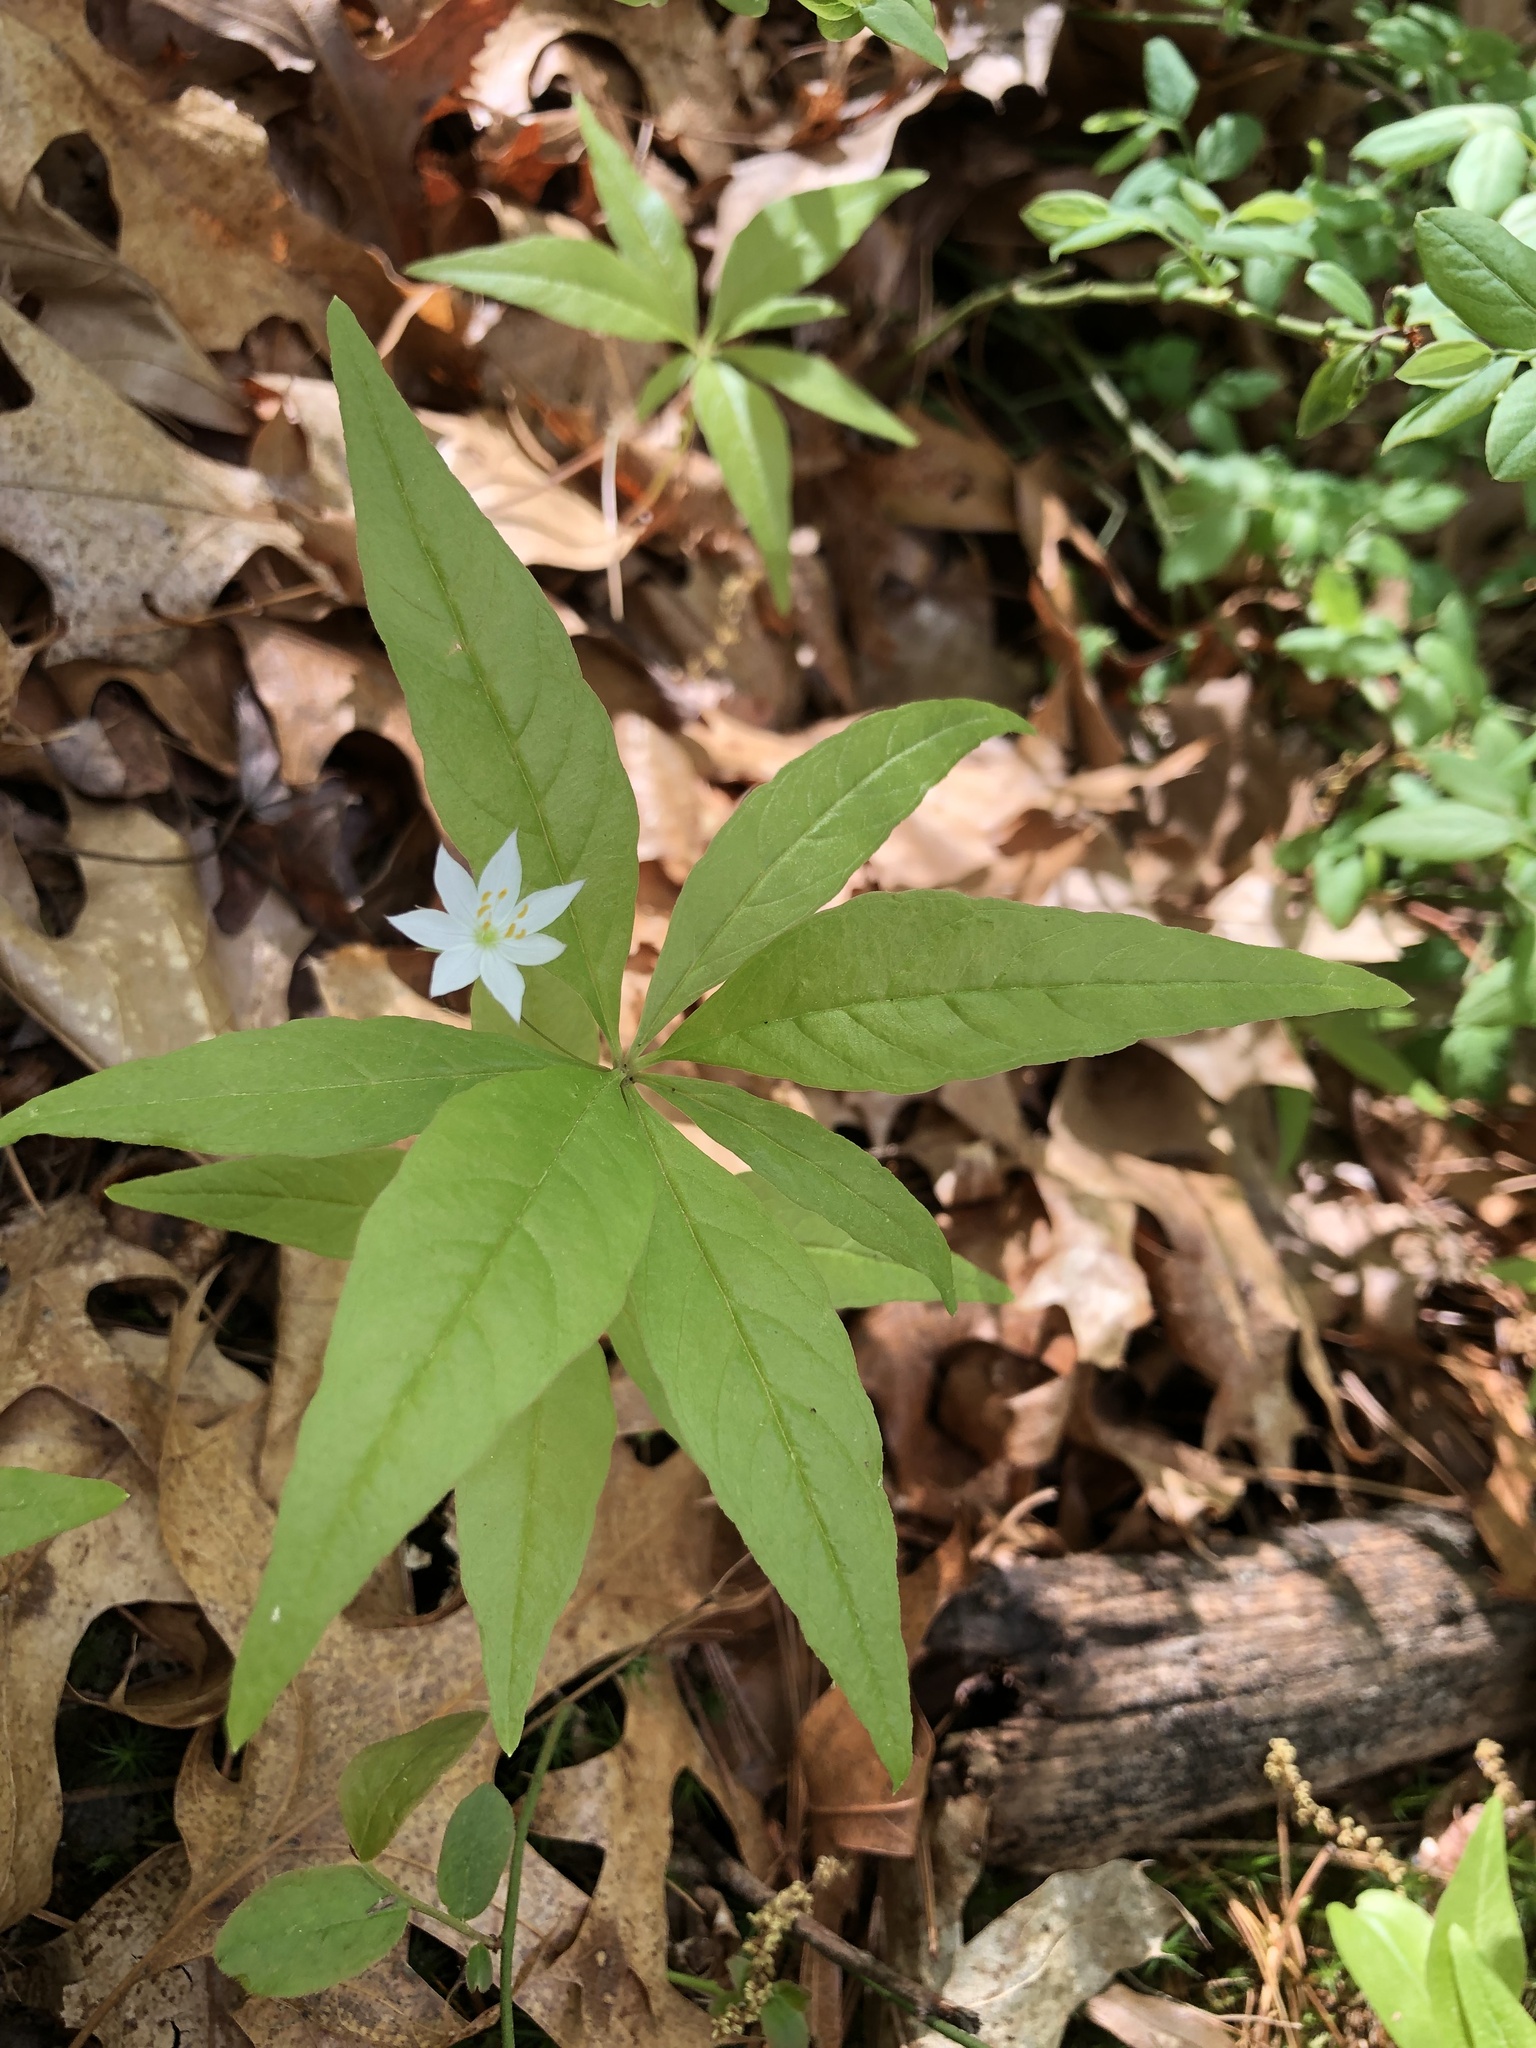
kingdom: Plantae
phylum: Tracheophyta
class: Magnoliopsida
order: Ericales
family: Primulaceae
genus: Lysimachia
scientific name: Lysimachia borealis
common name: American starflower
